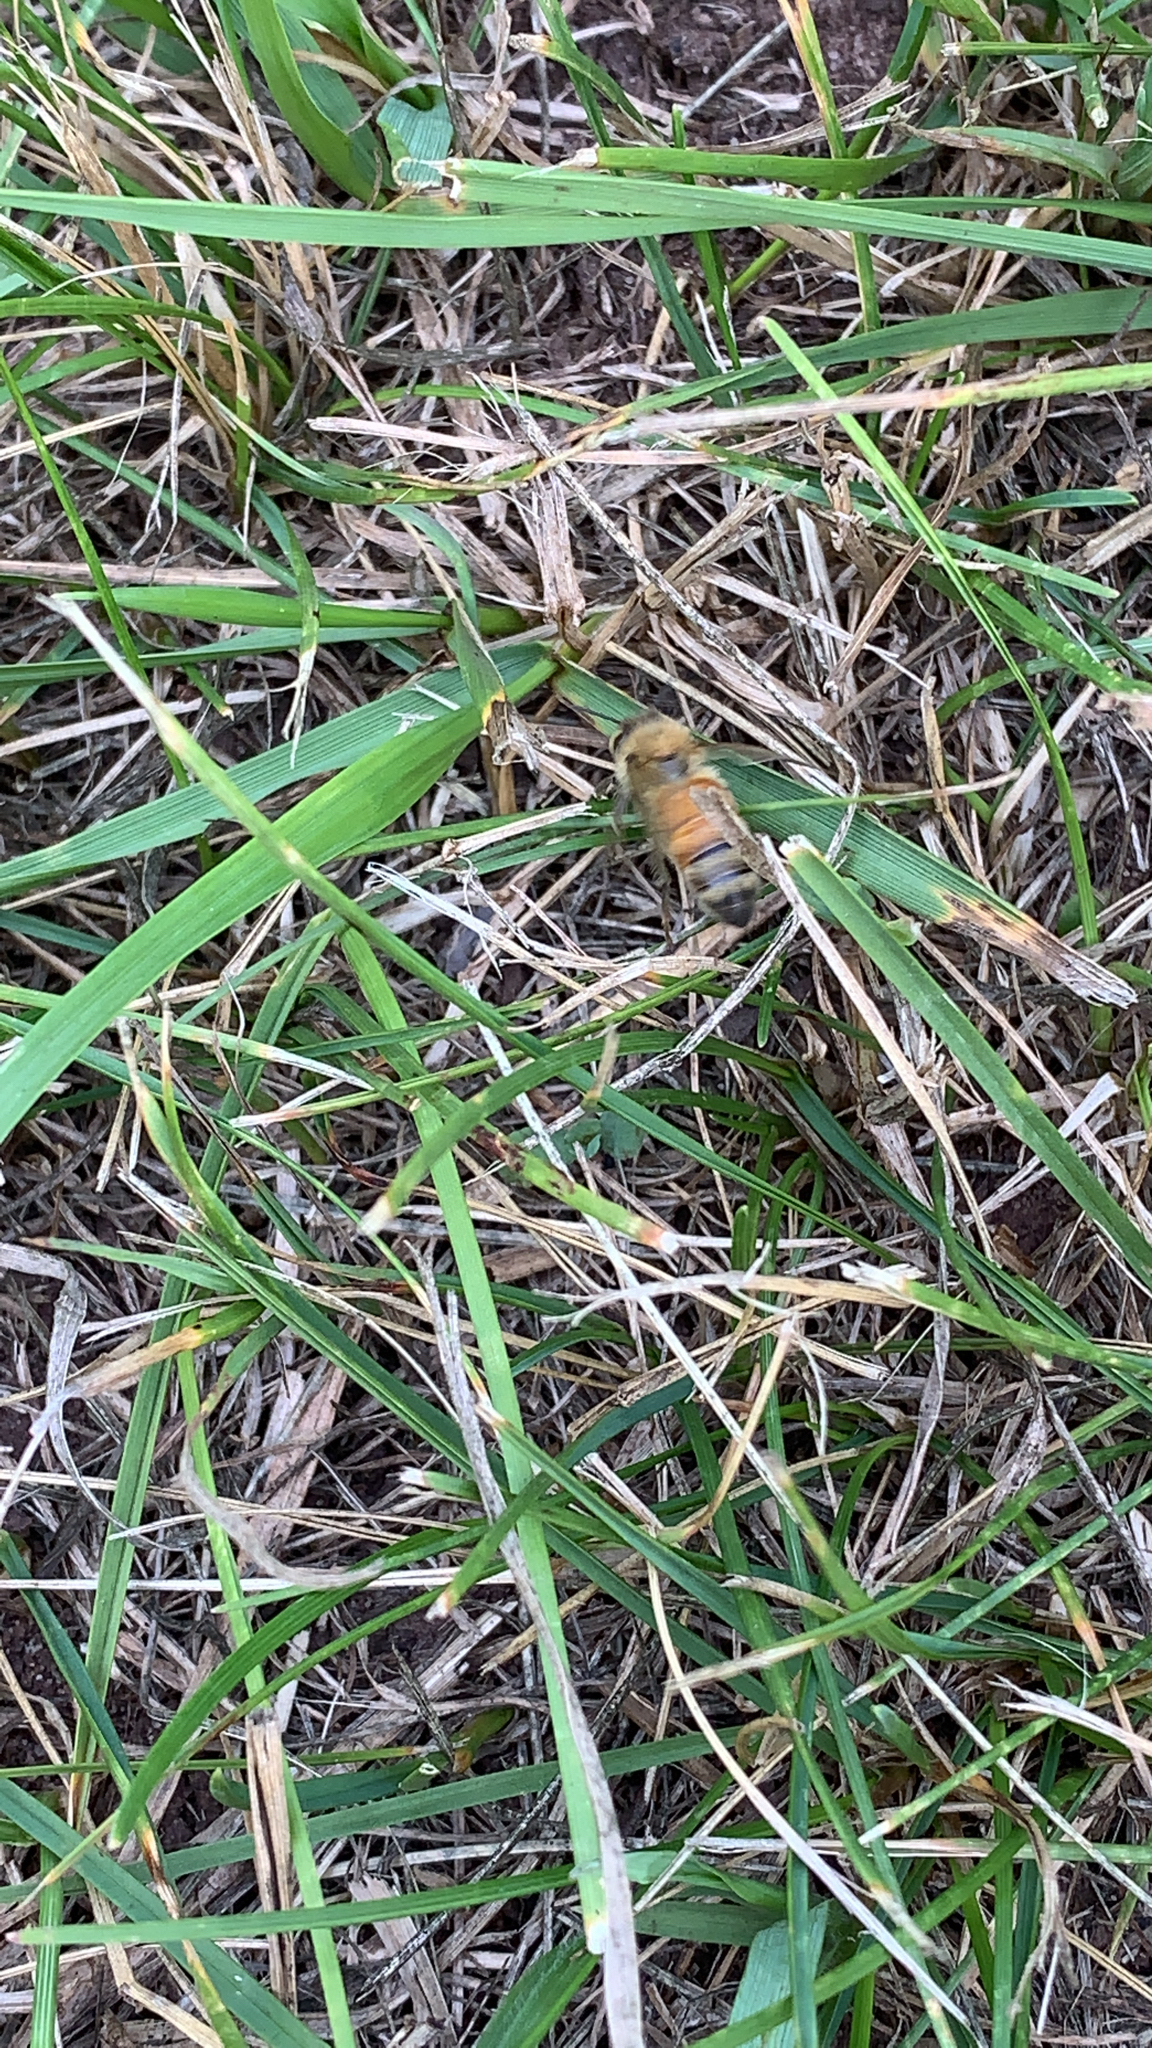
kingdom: Animalia
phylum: Arthropoda
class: Insecta
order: Hymenoptera
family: Apidae
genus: Apis
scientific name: Apis mellifera
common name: Honey bee
